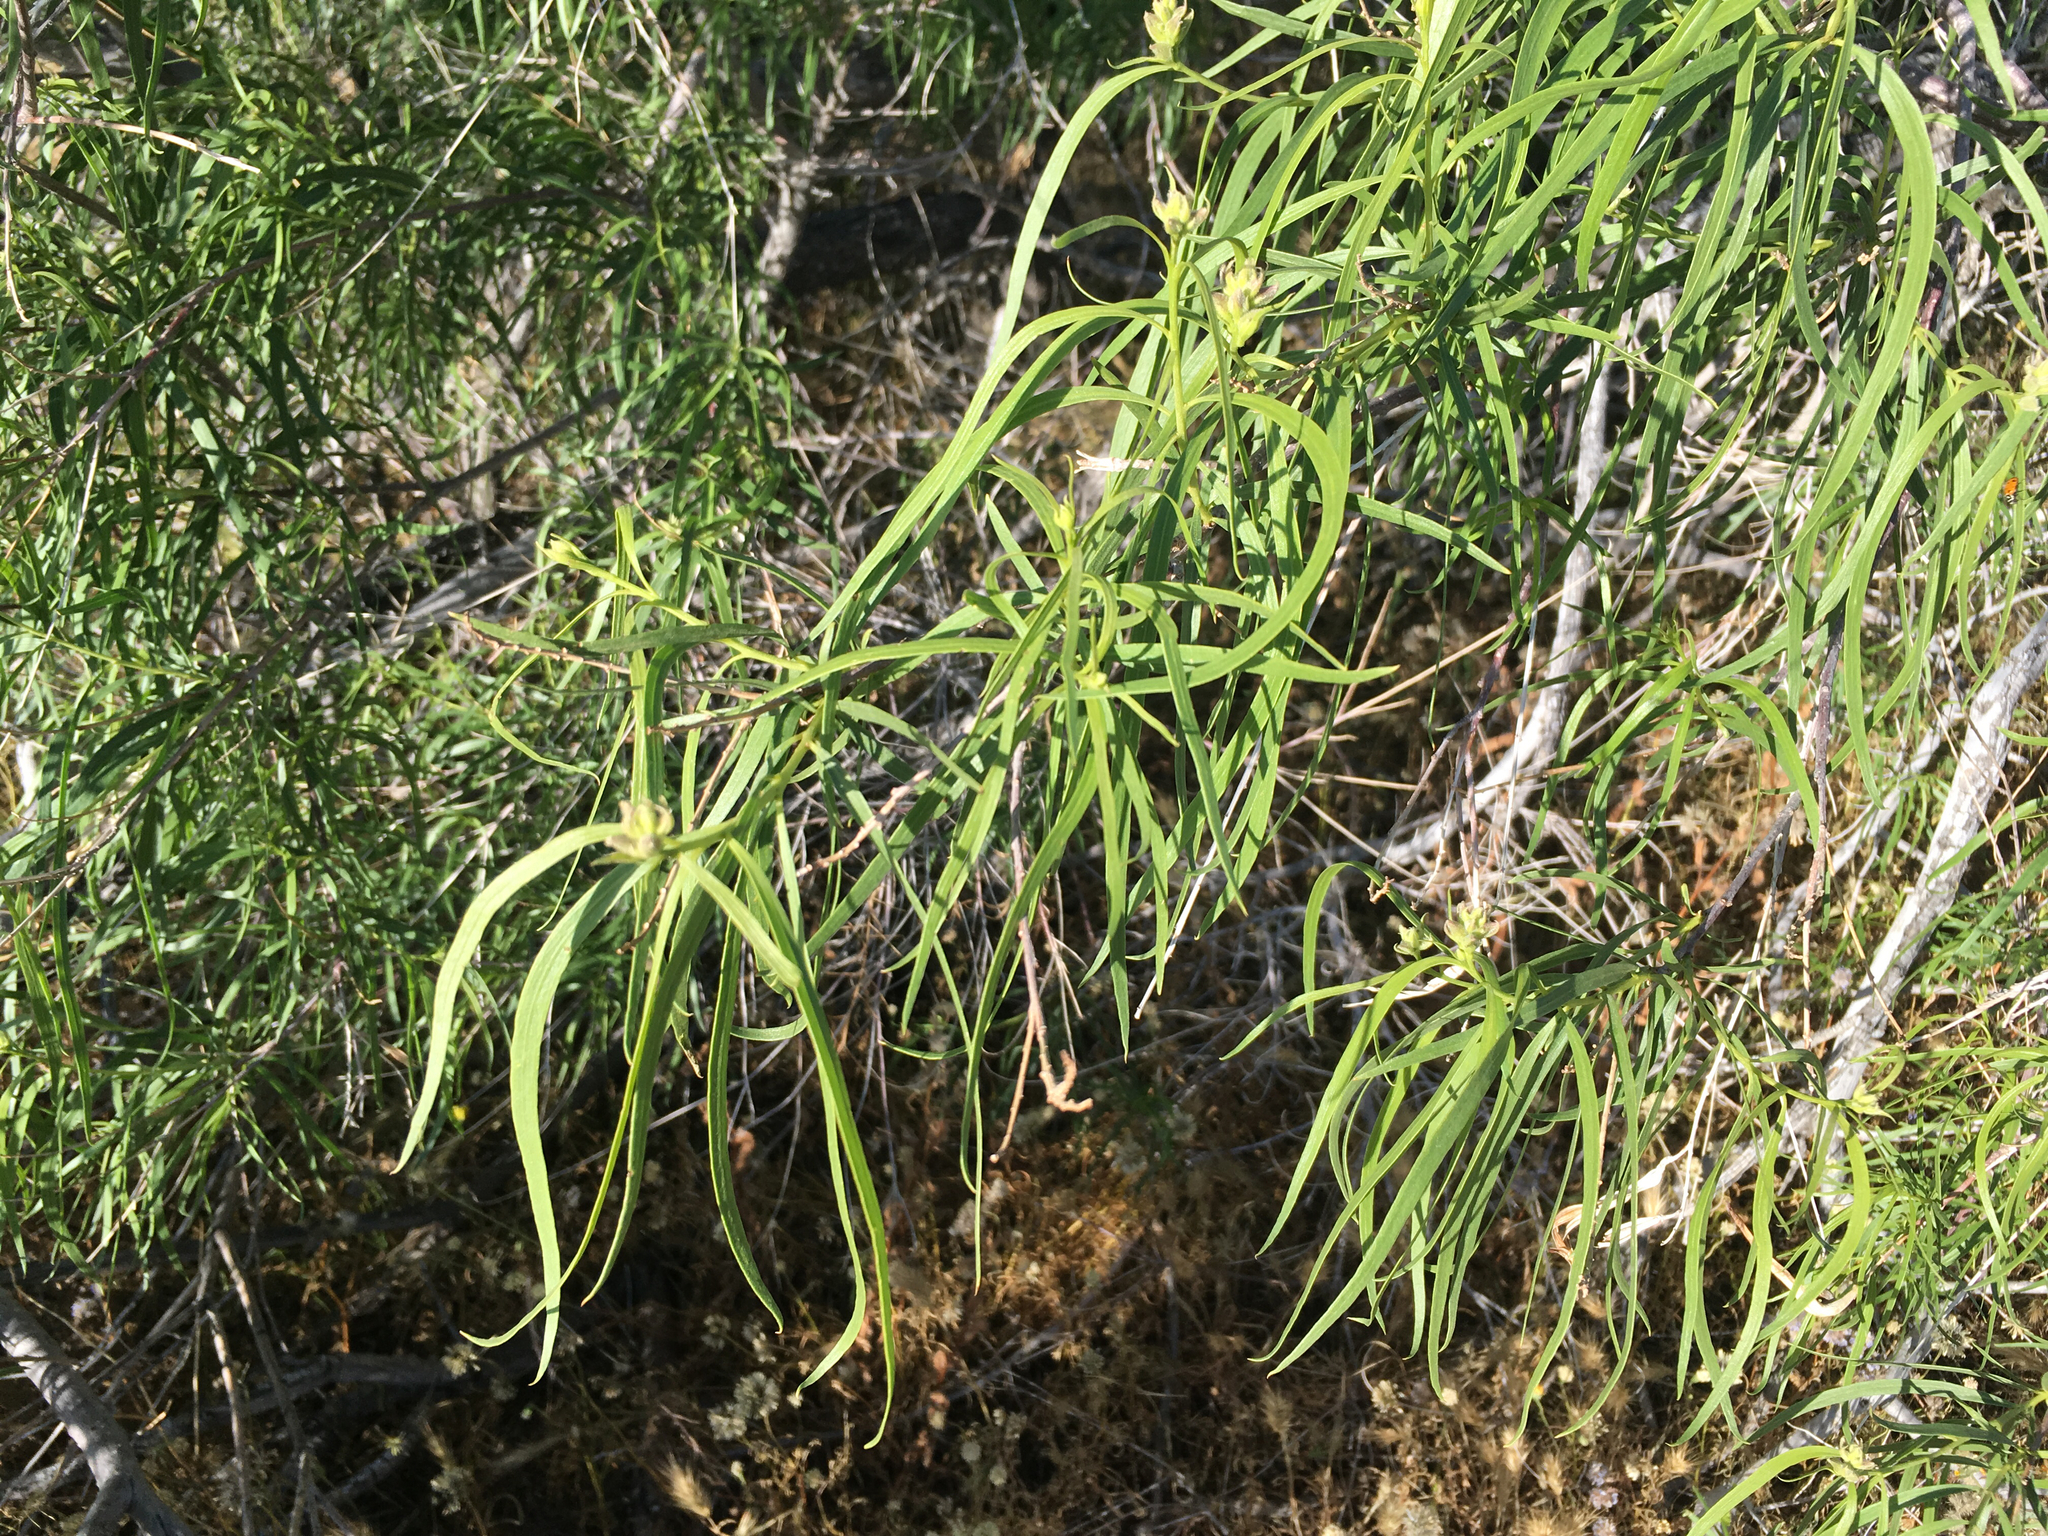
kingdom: Plantae
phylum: Tracheophyta
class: Magnoliopsida
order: Lamiales
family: Bignoniaceae
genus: Chilopsis
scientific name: Chilopsis linearis
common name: Desert-willow
